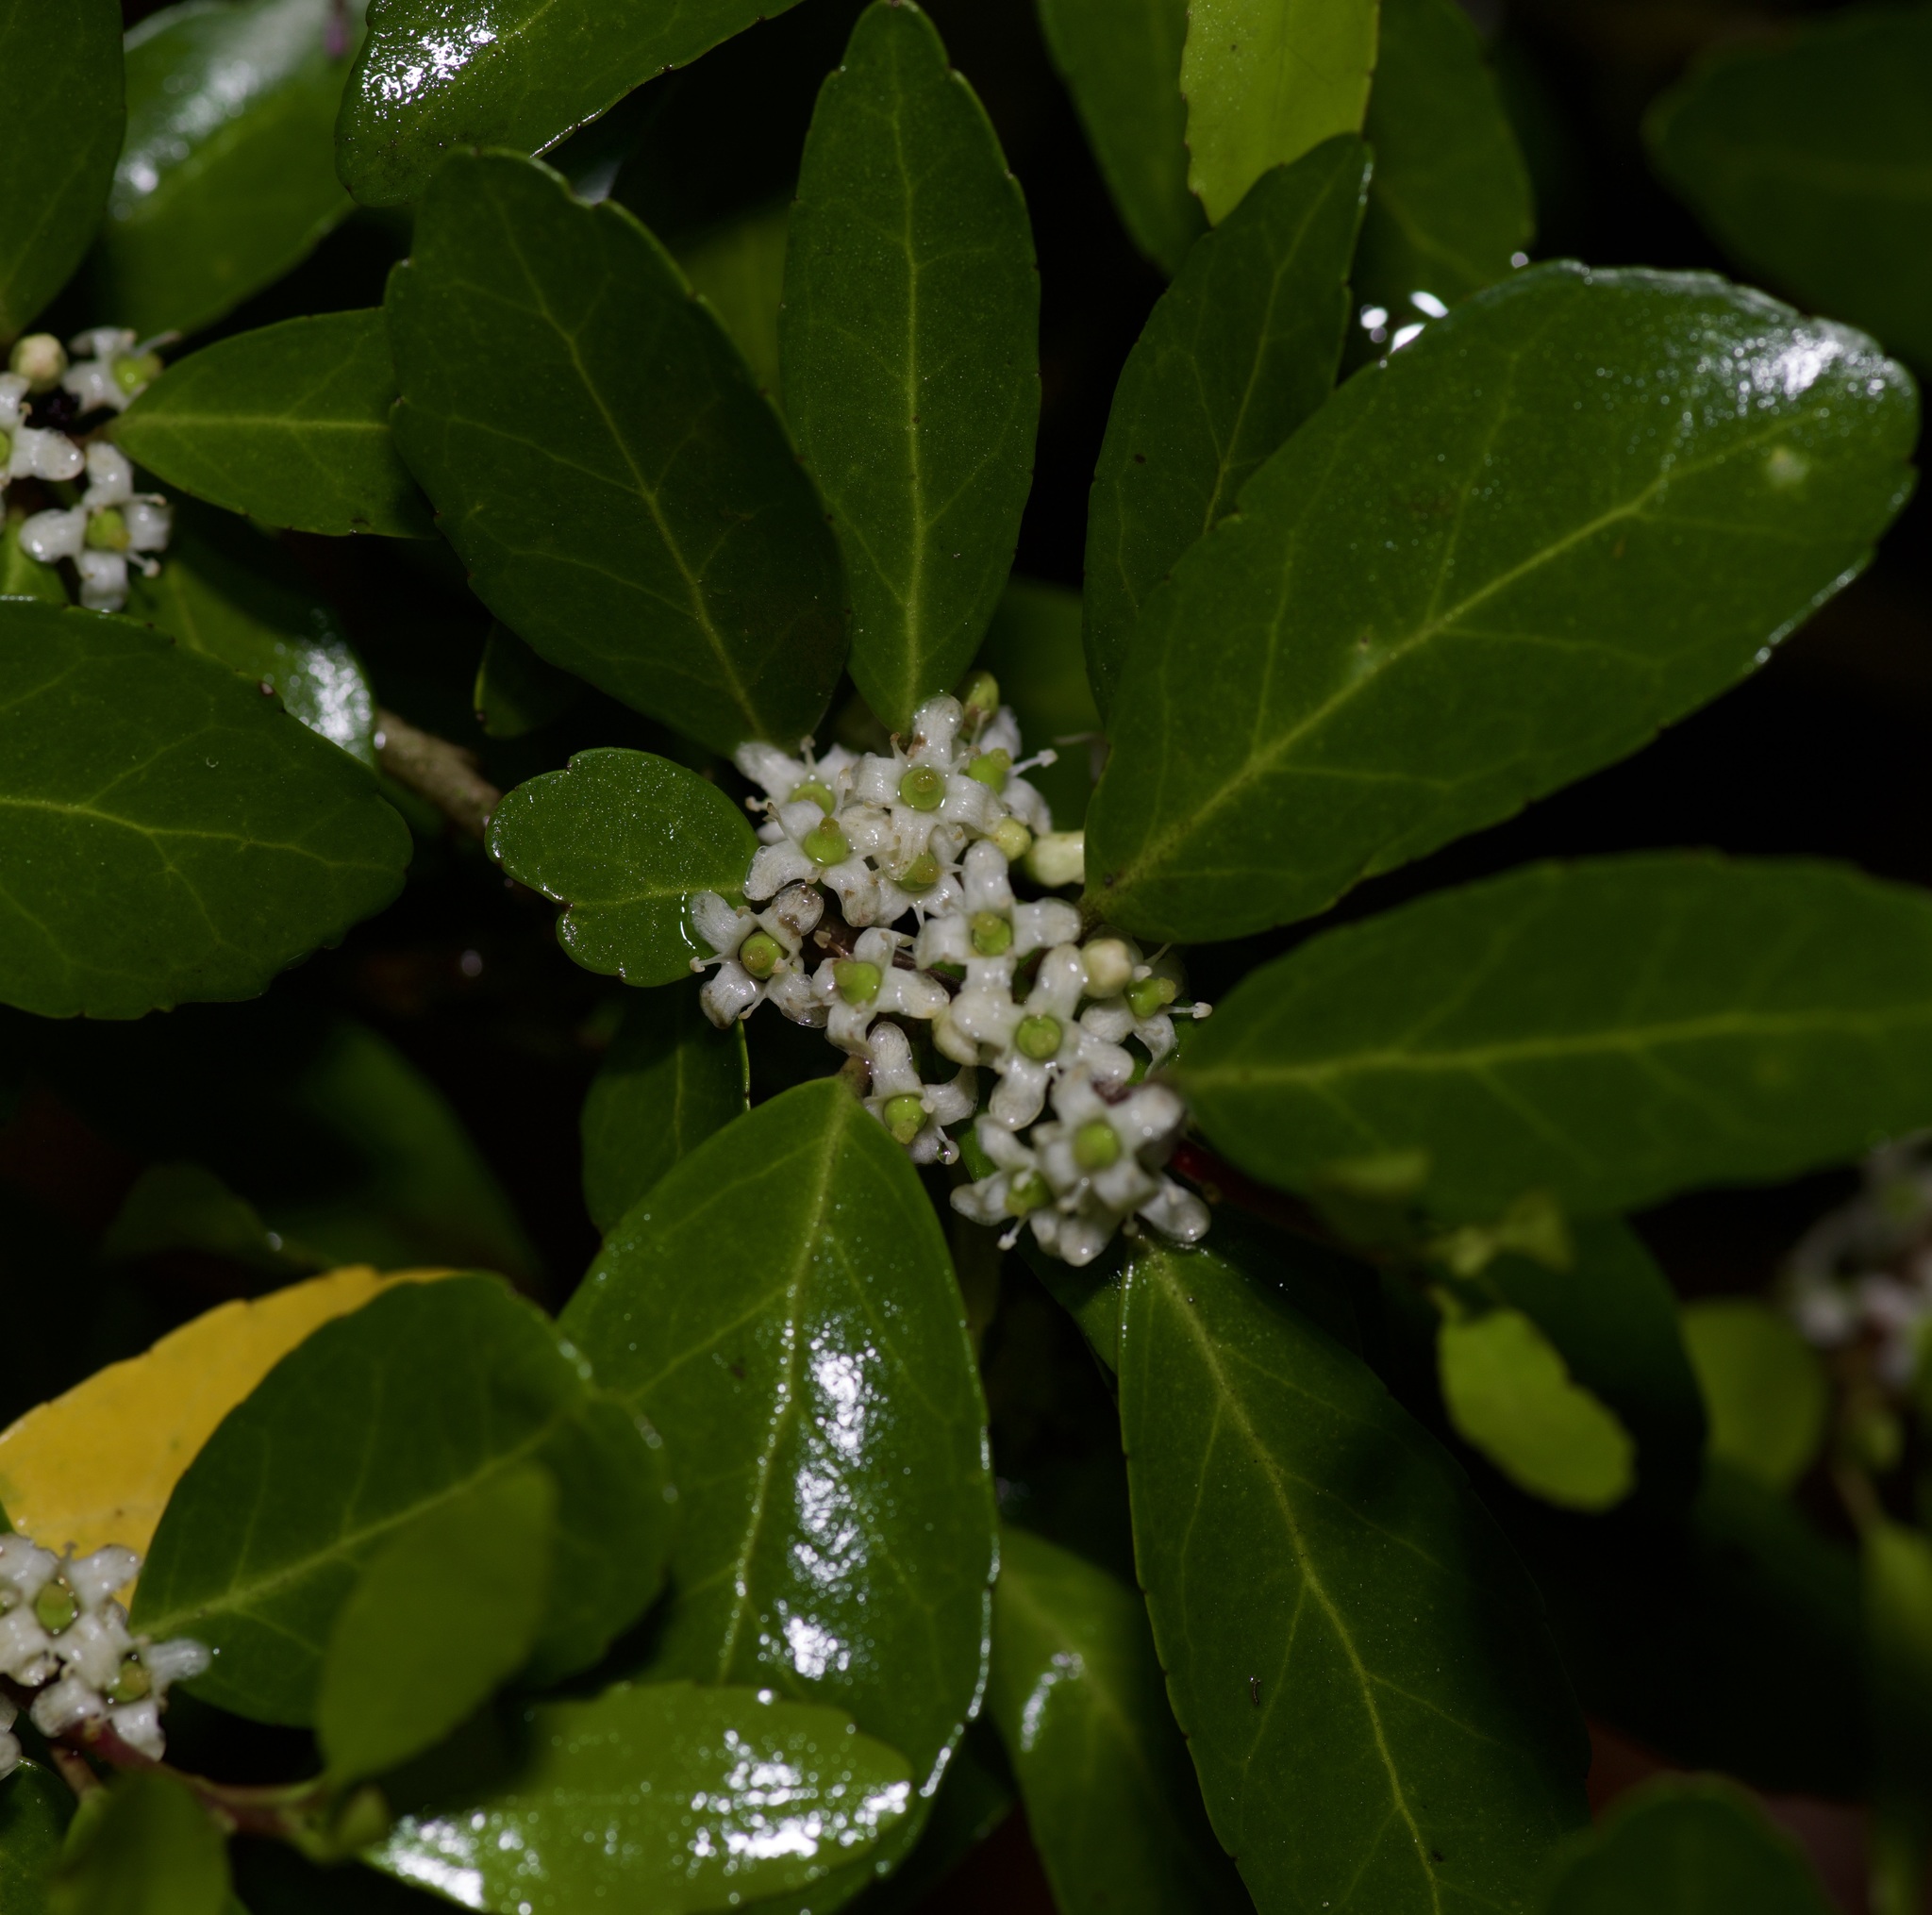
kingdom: Plantae
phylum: Tracheophyta
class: Magnoliopsida
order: Aquifoliales
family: Aquifoliaceae
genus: Ilex
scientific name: Ilex vomitoria
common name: Yaupon holly
